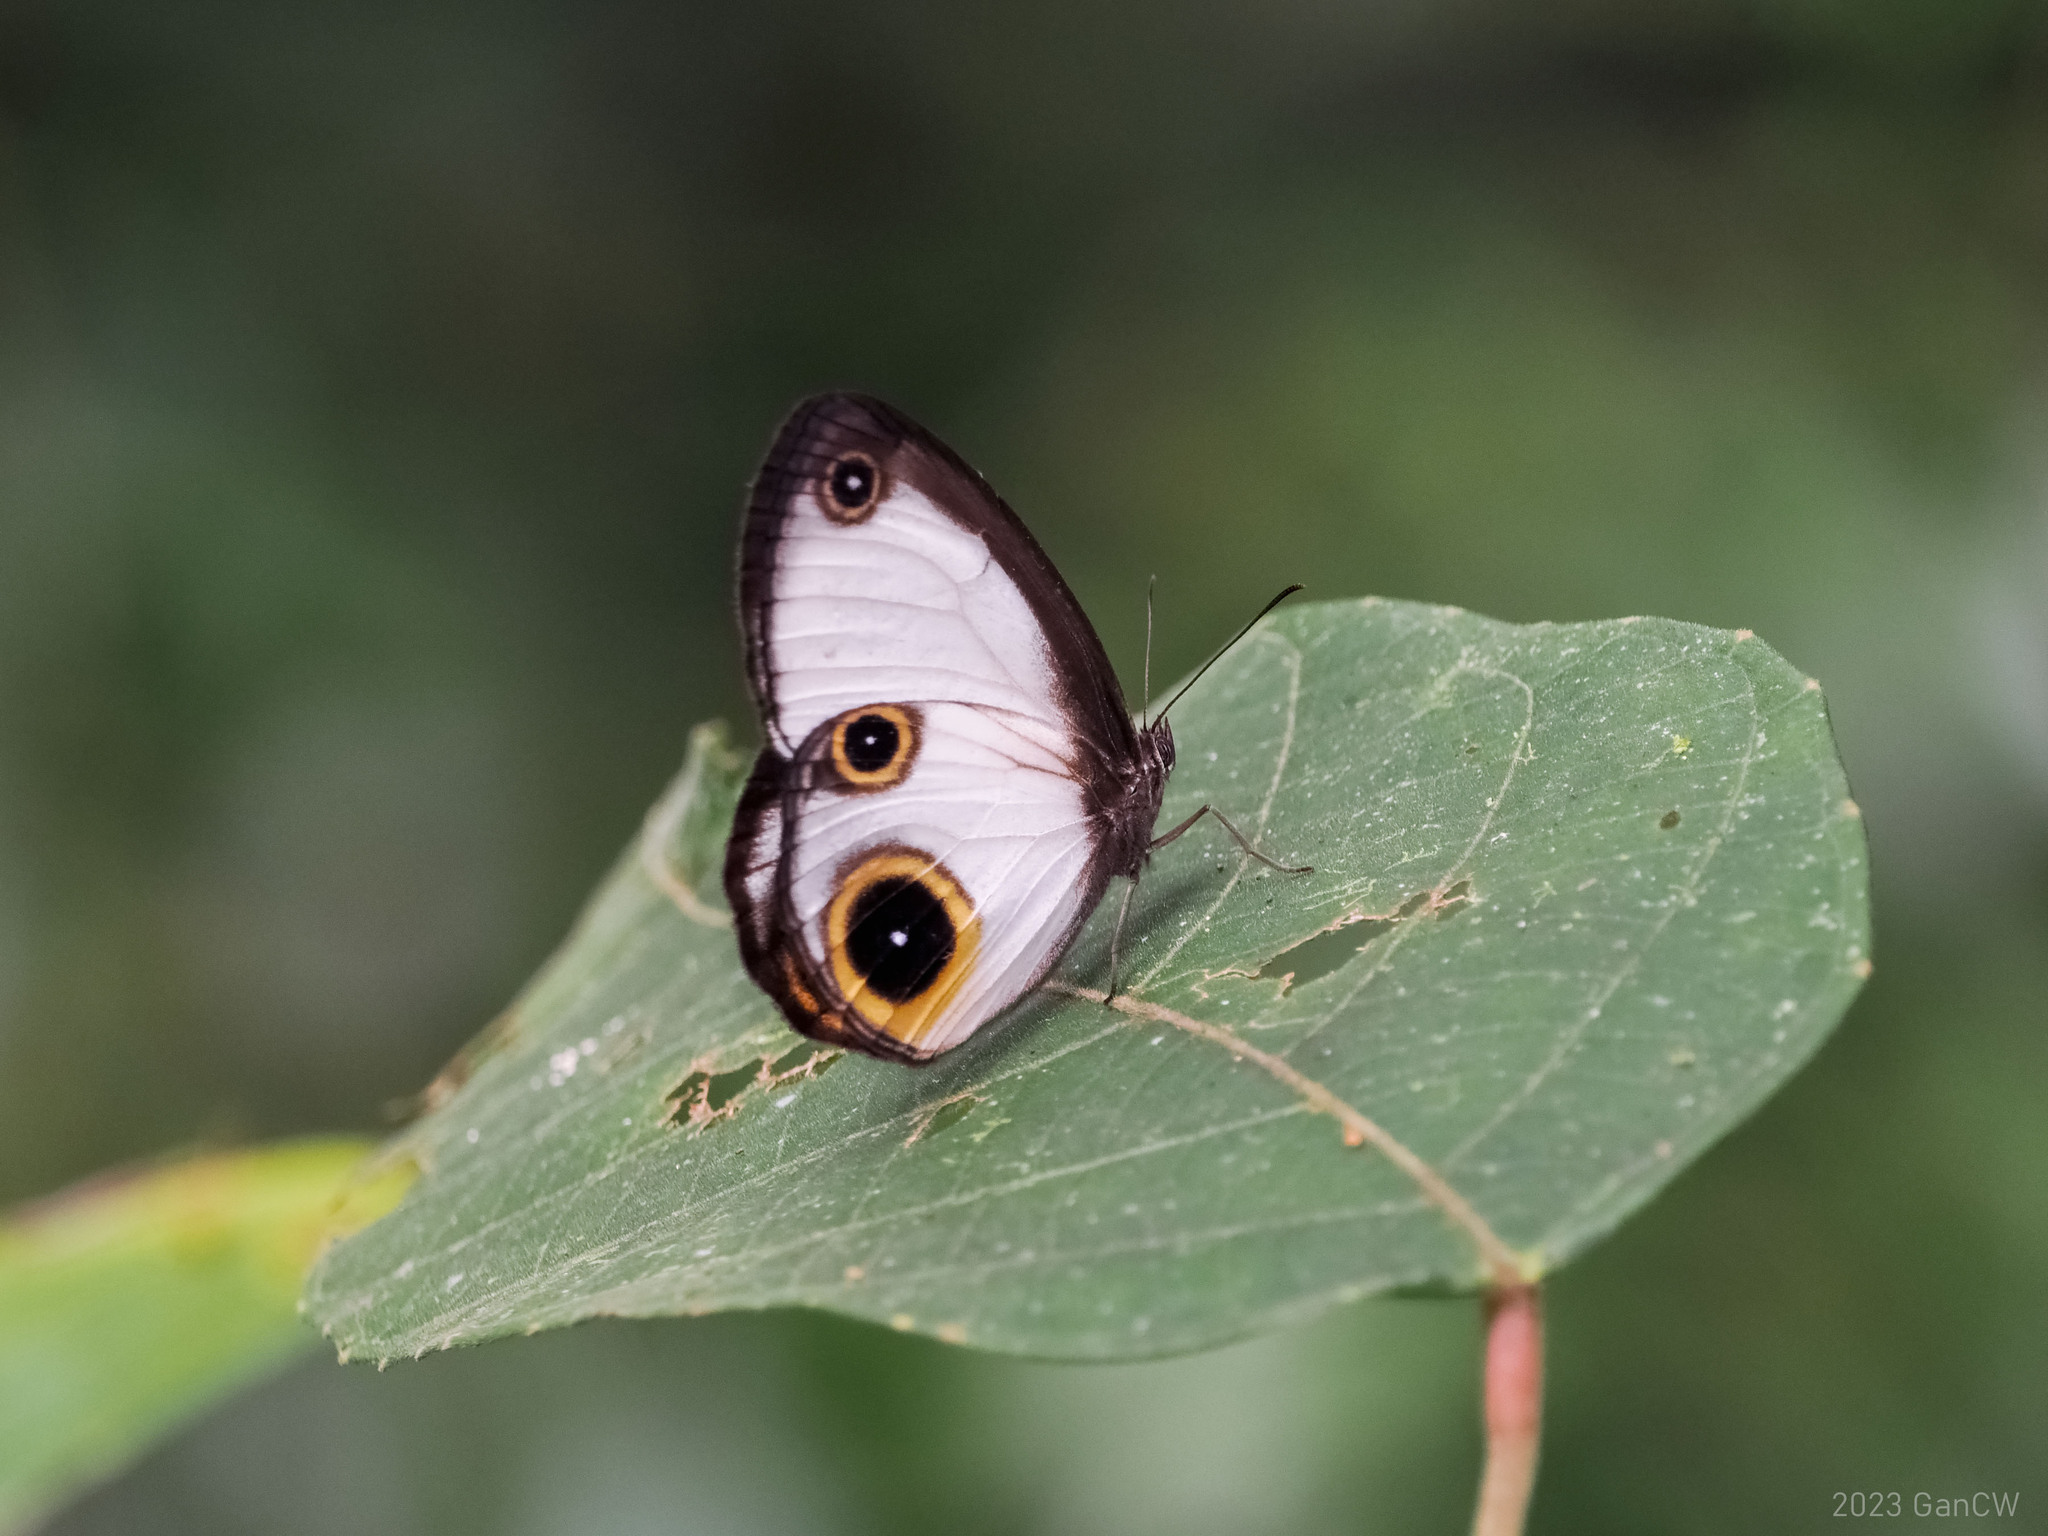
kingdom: Animalia
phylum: Arthropoda
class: Insecta
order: Lepidoptera
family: Nymphalidae
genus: Mycalesis
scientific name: Mycalesis drusillodes
